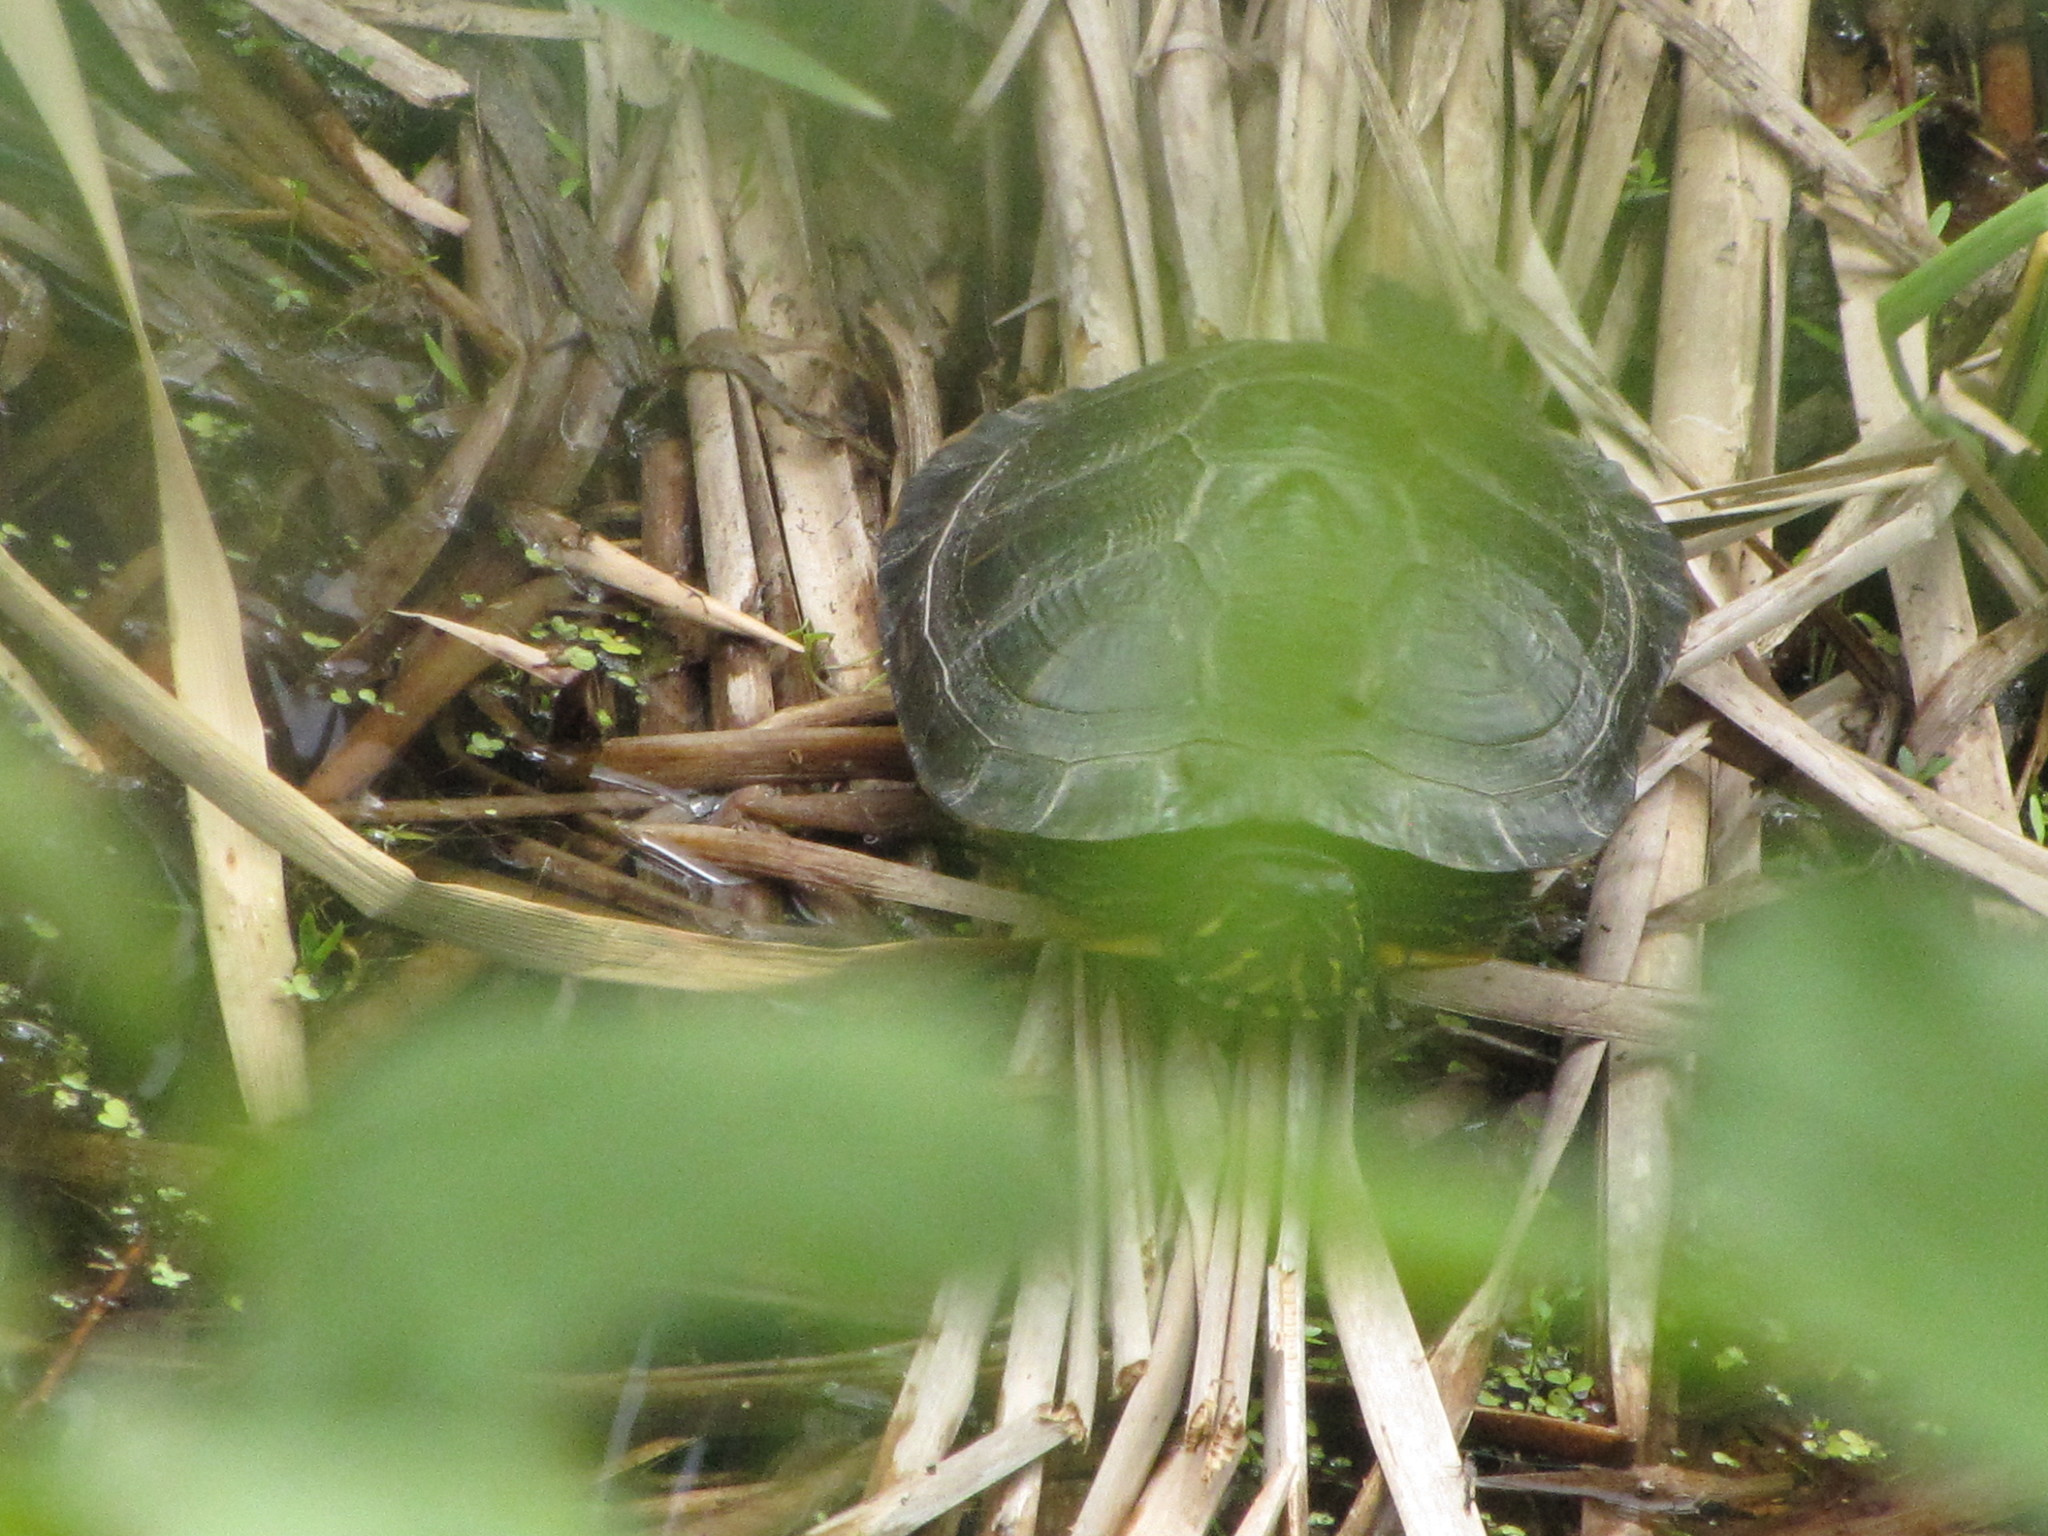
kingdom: Animalia
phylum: Chordata
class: Testudines
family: Emydidae
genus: Trachemys
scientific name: Trachemys scripta
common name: Slider
